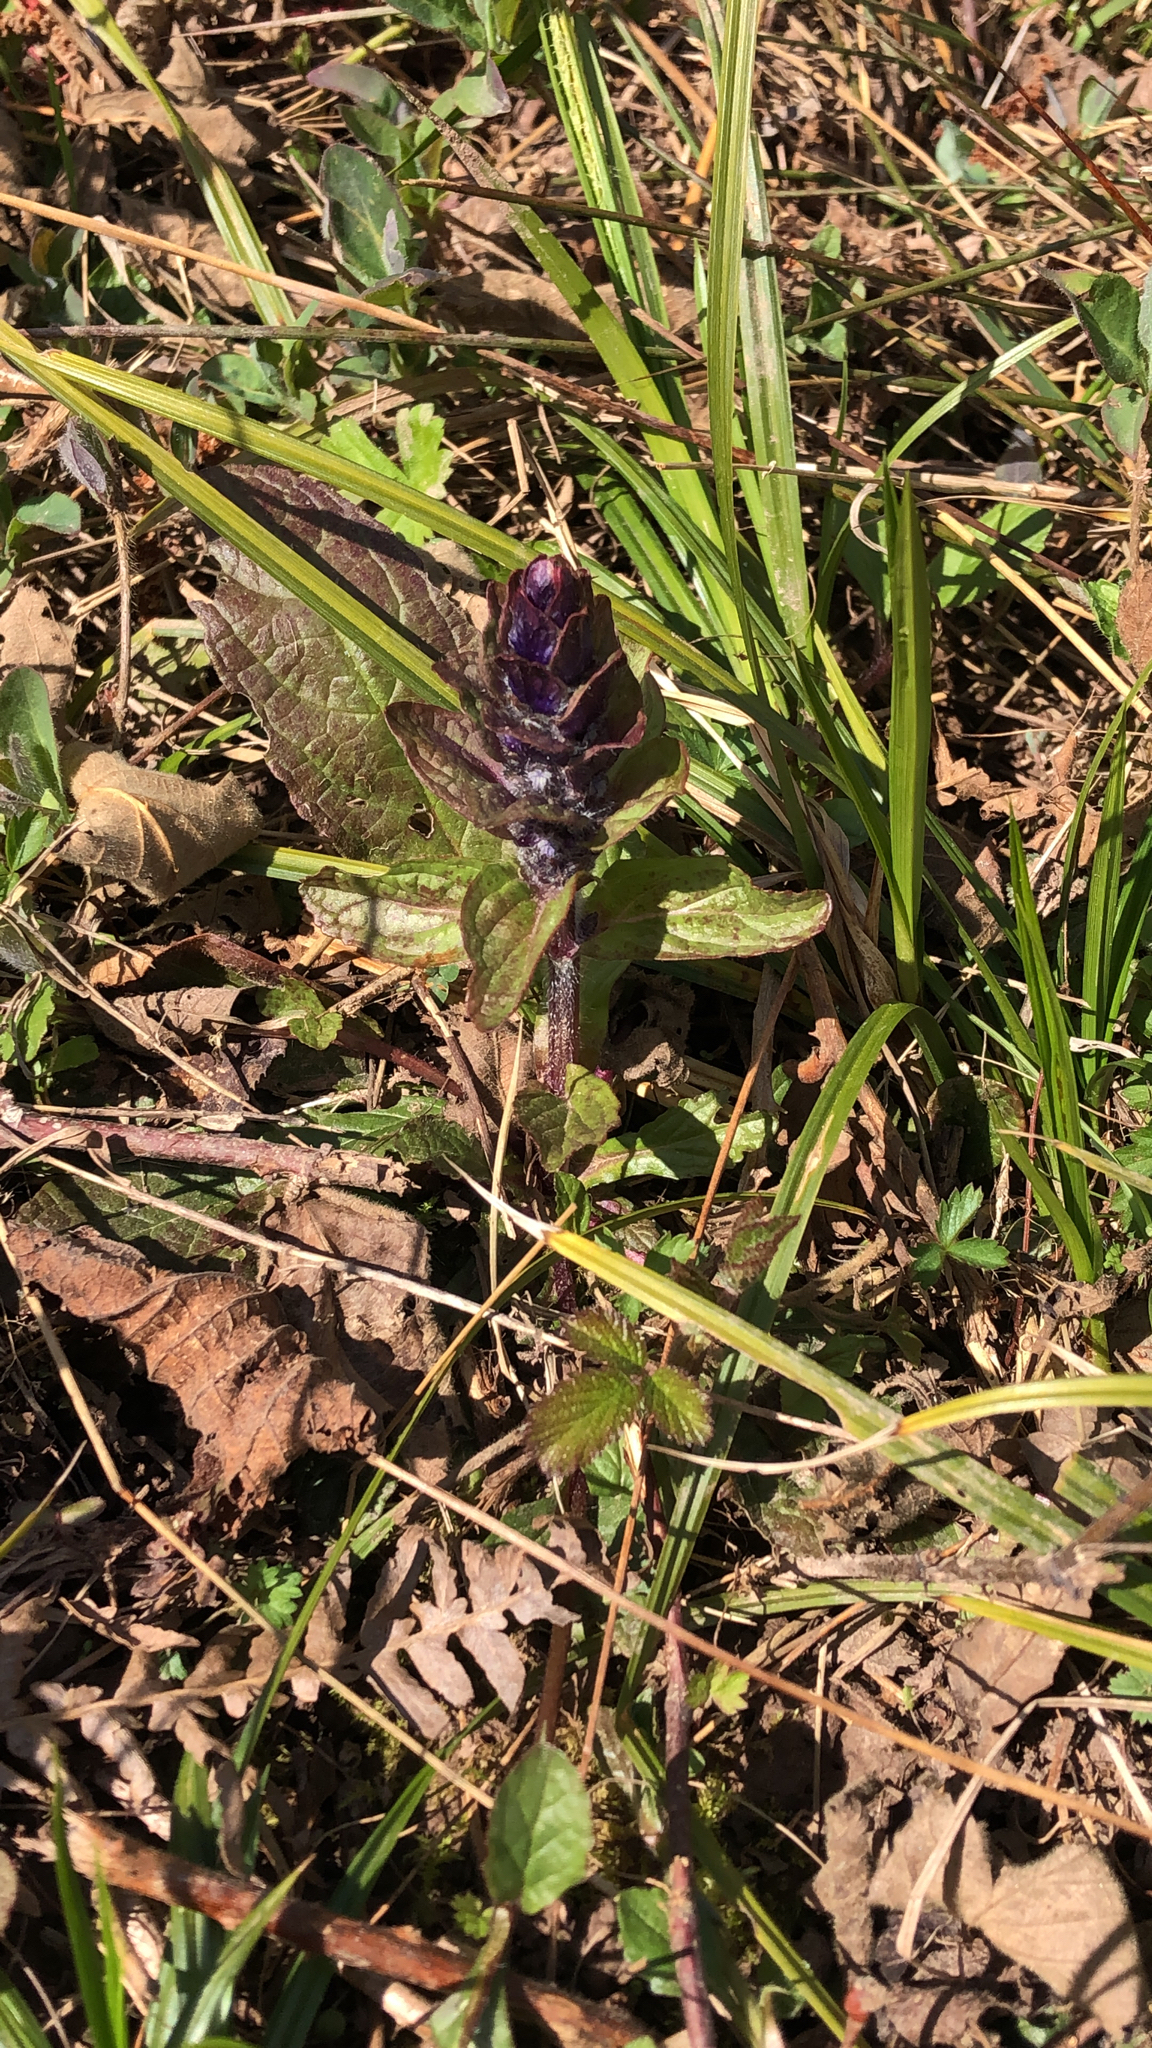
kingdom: Plantae
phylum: Tracheophyta
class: Magnoliopsida
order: Lamiales
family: Lamiaceae
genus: Ajuga
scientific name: Ajuga reptans
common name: Bugle
